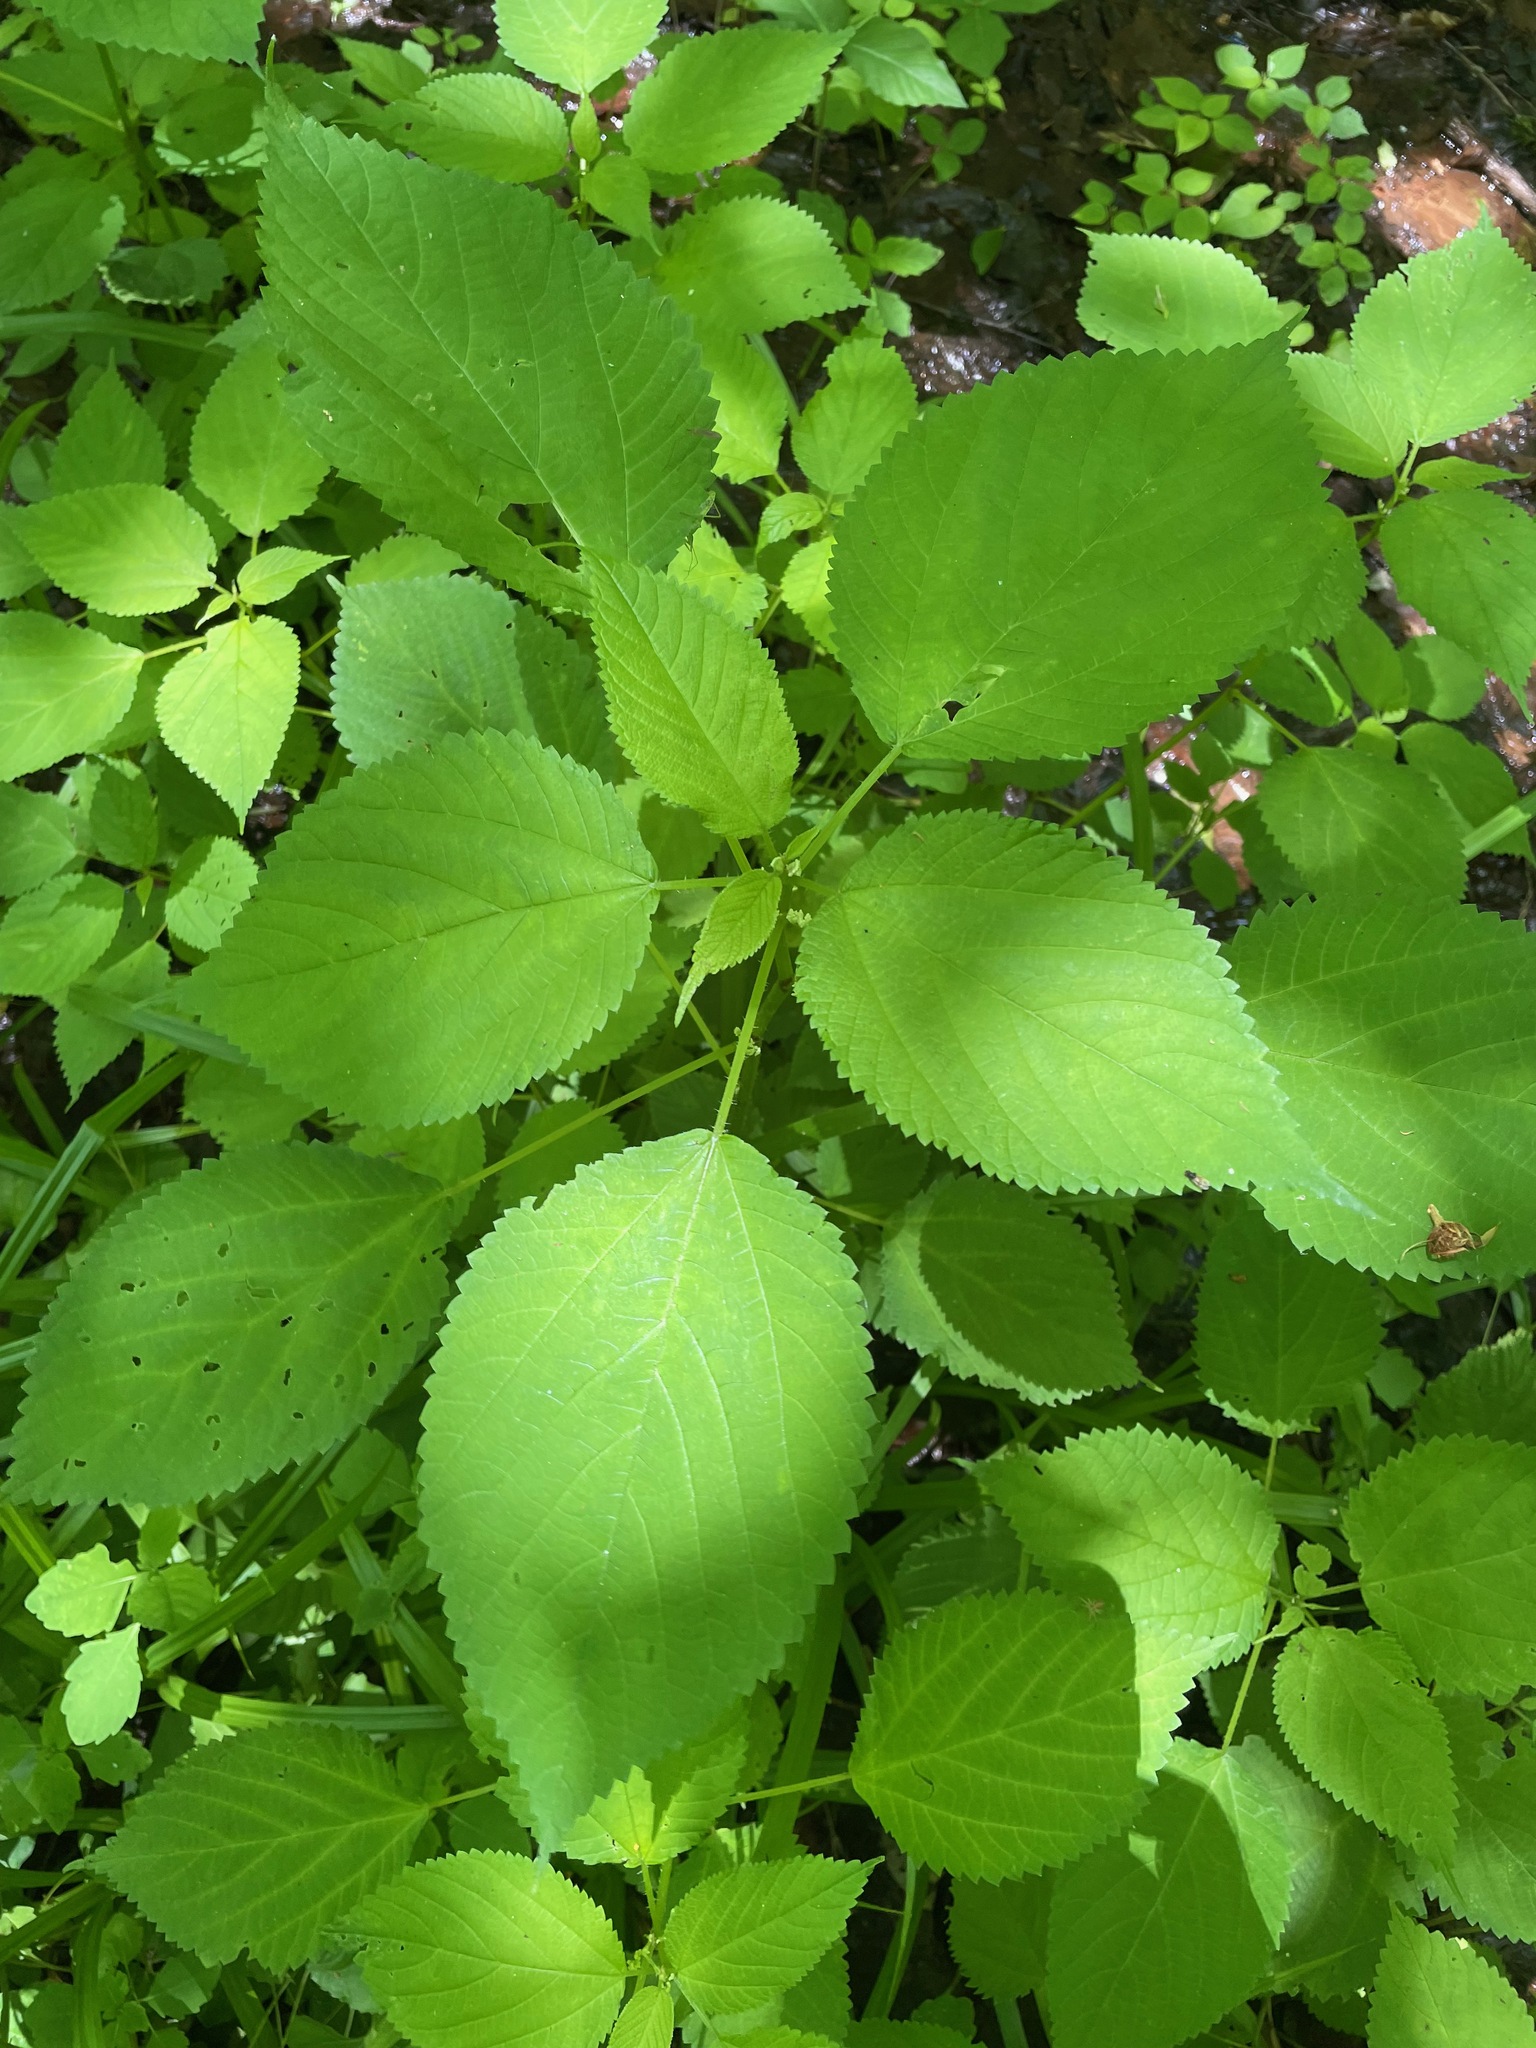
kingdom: Plantae
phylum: Tracheophyta
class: Magnoliopsida
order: Rosales
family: Urticaceae
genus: Laportea
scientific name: Laportea canadensis
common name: Canada nettle
